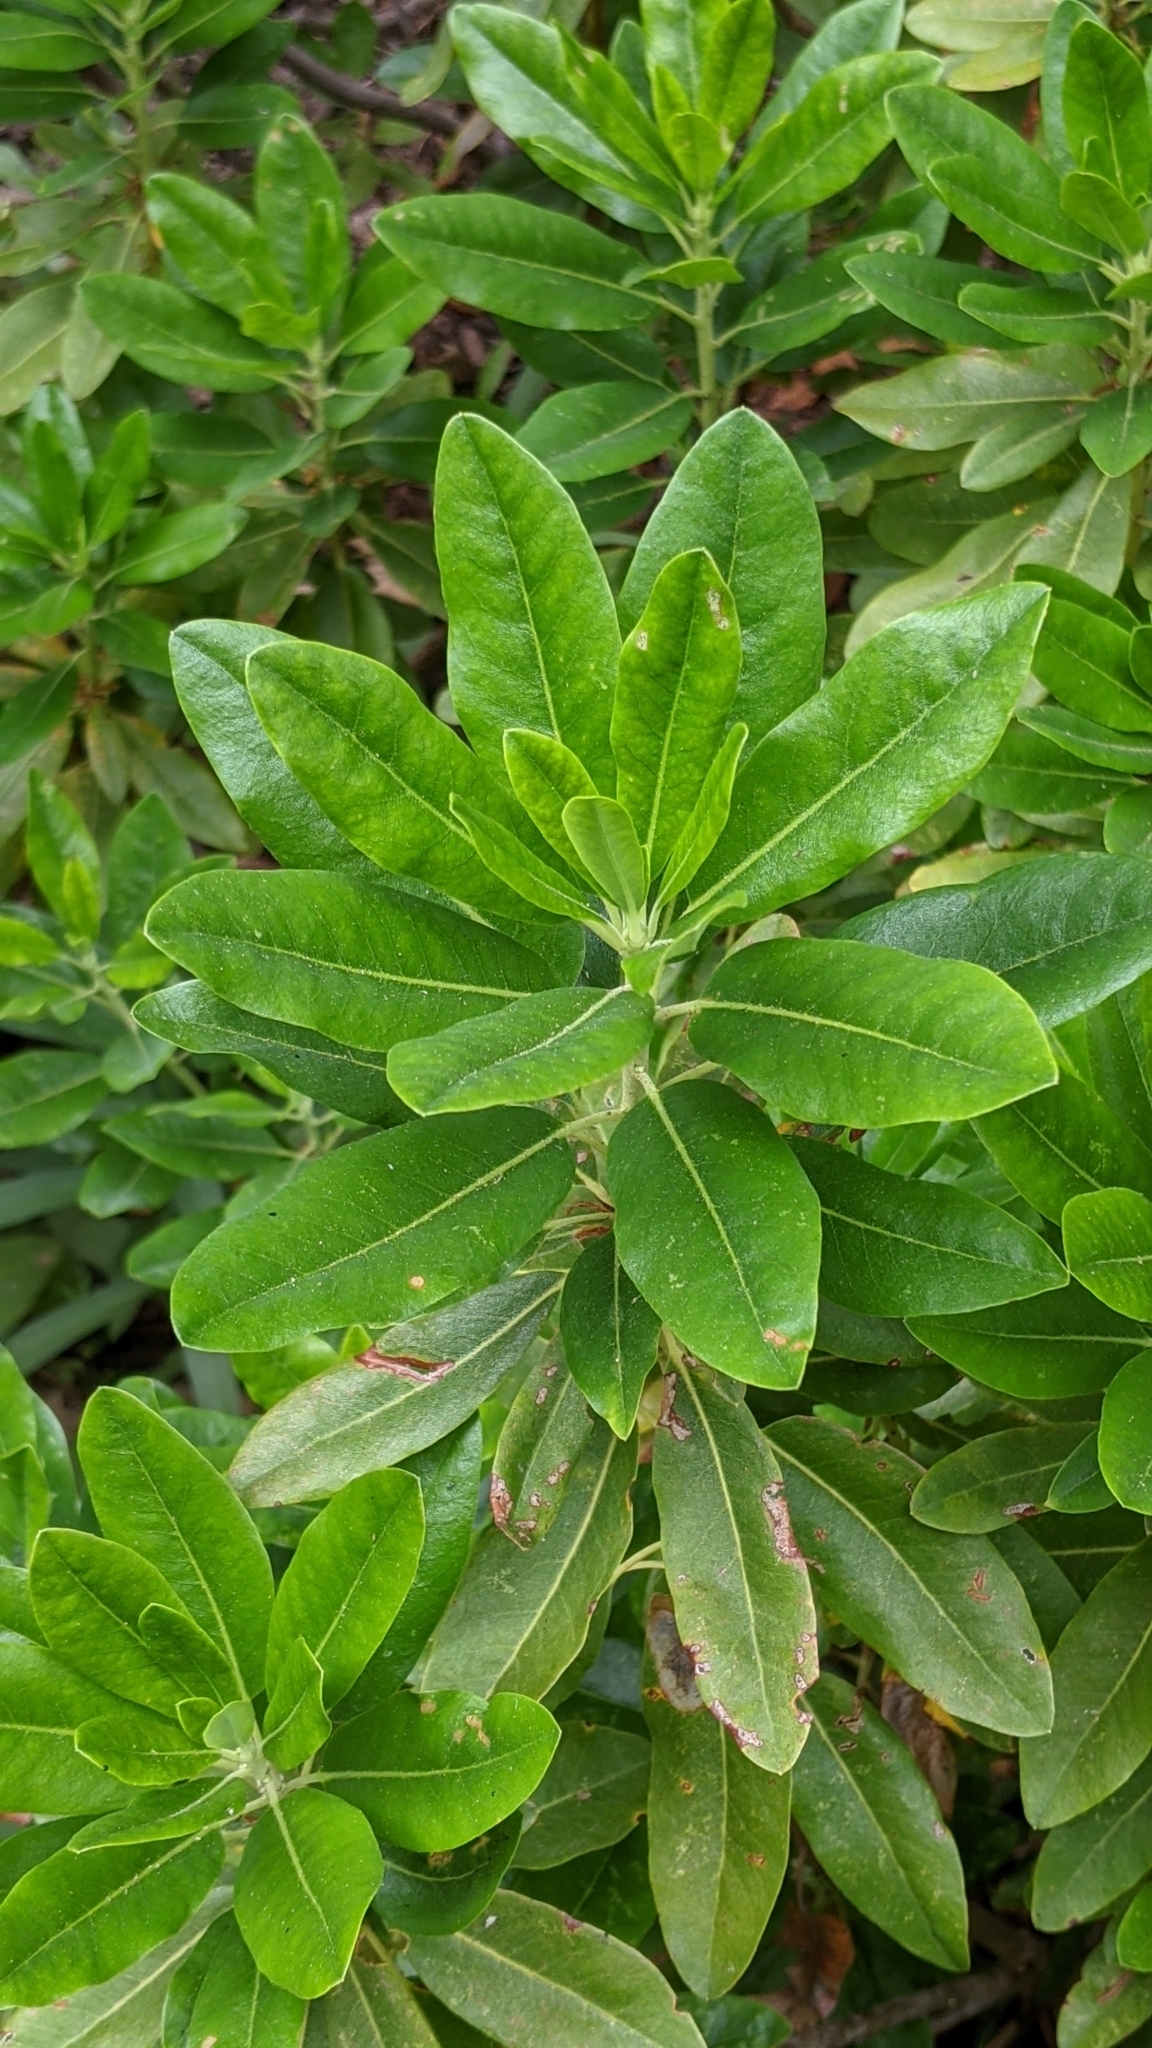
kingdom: Plantae
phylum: Tracheophyta
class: Magnoliopsida
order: Ericales
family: Ericaceae
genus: Rhododendron
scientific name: Rhododendron occidentale
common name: Western azalea
